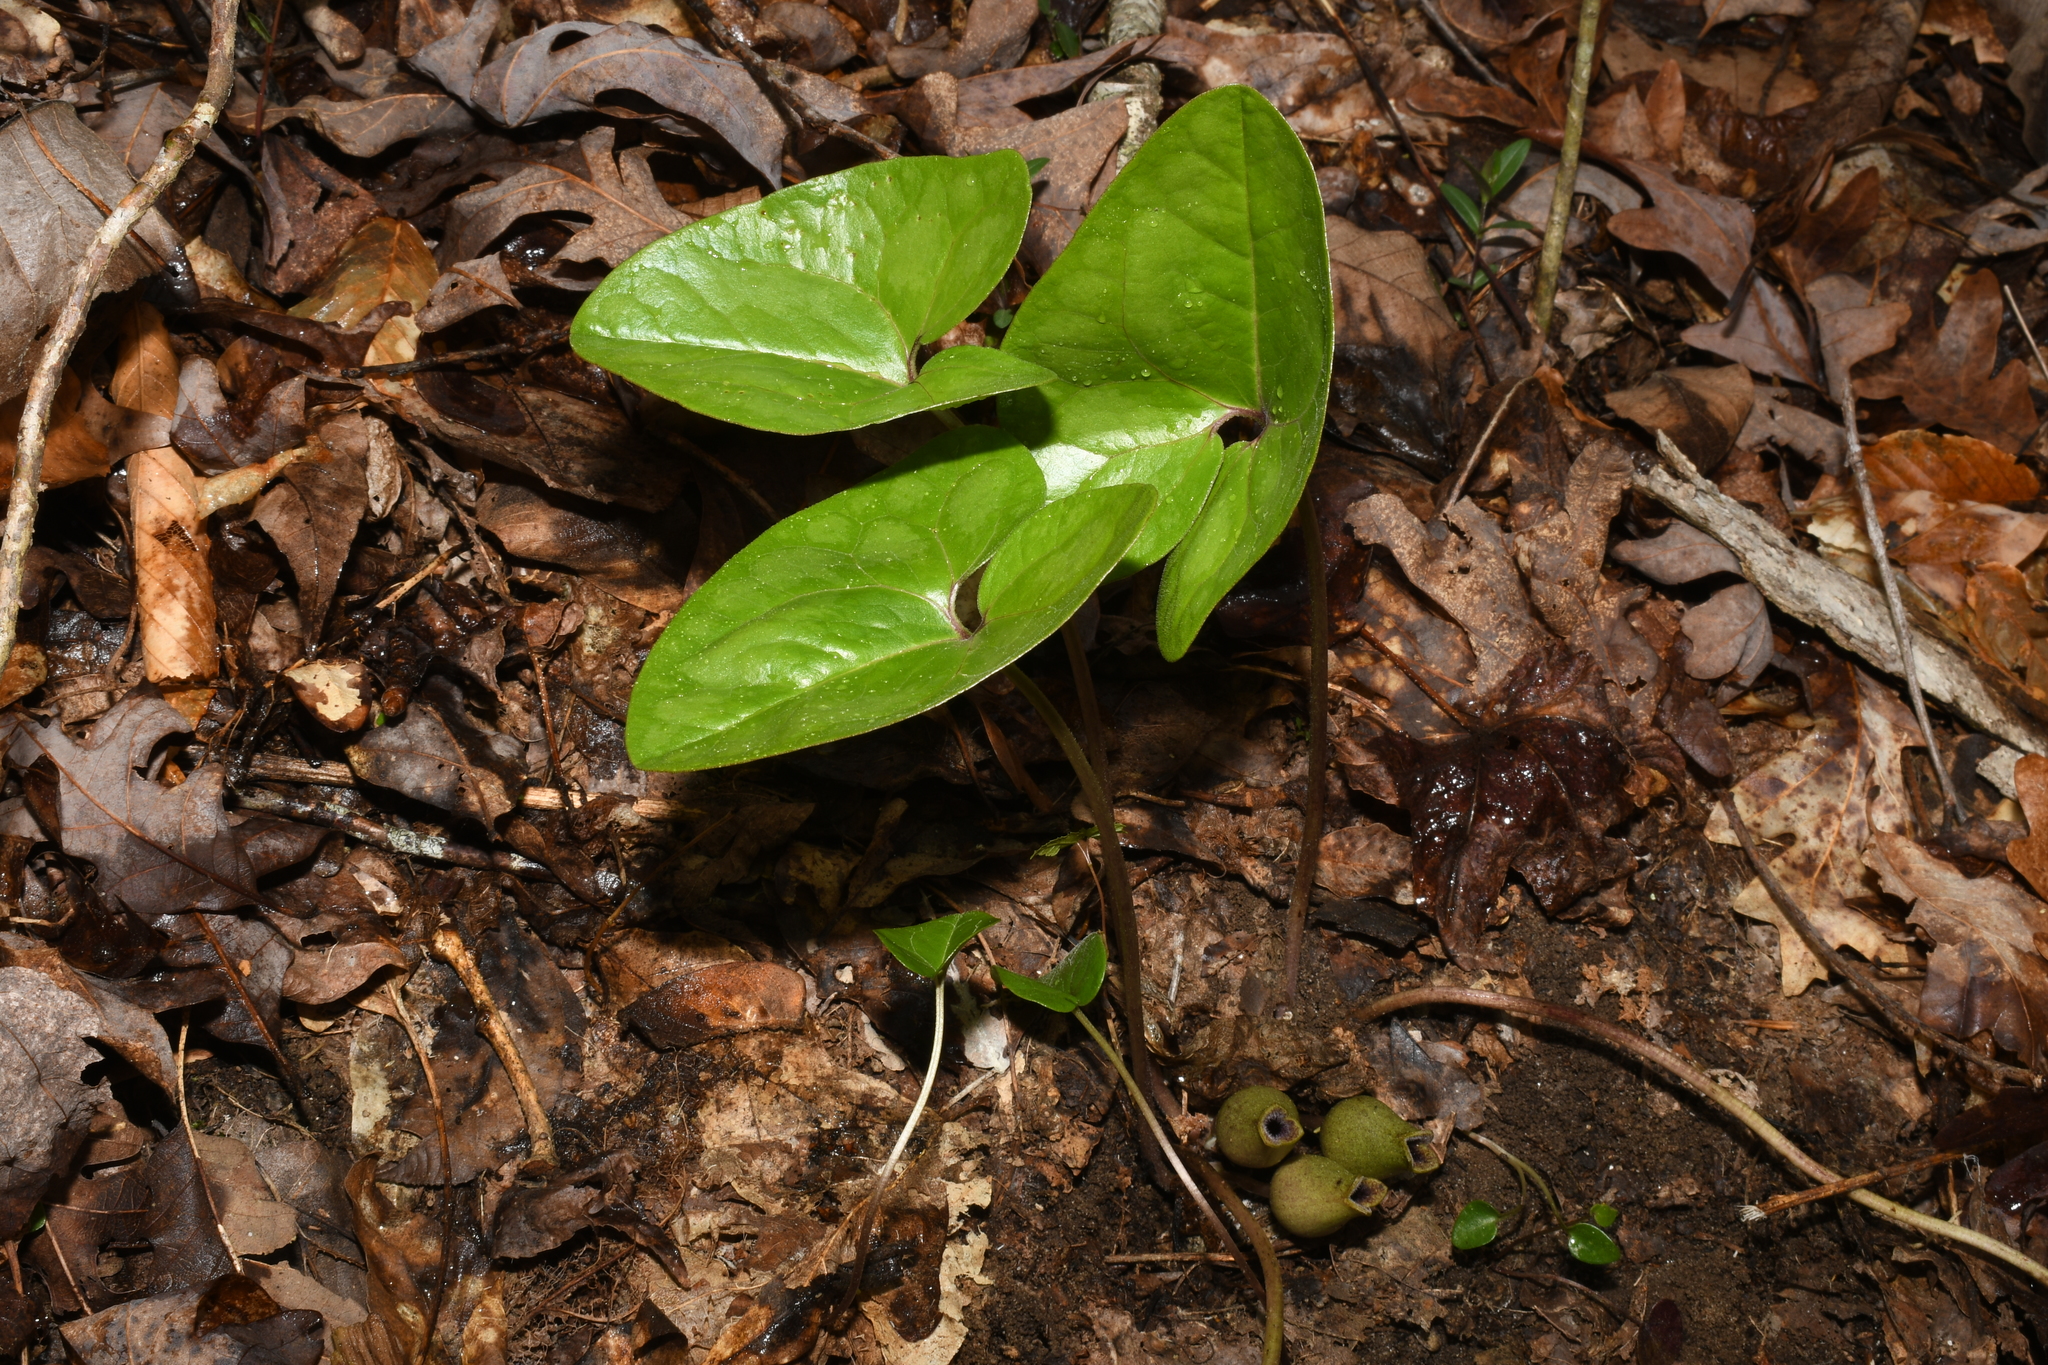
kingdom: Plantae
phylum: Tracheophyta
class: Magnoliopsida
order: Piperales
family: Aristolochiaceae
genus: Hexastylis
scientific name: Hexastylis arifolia
